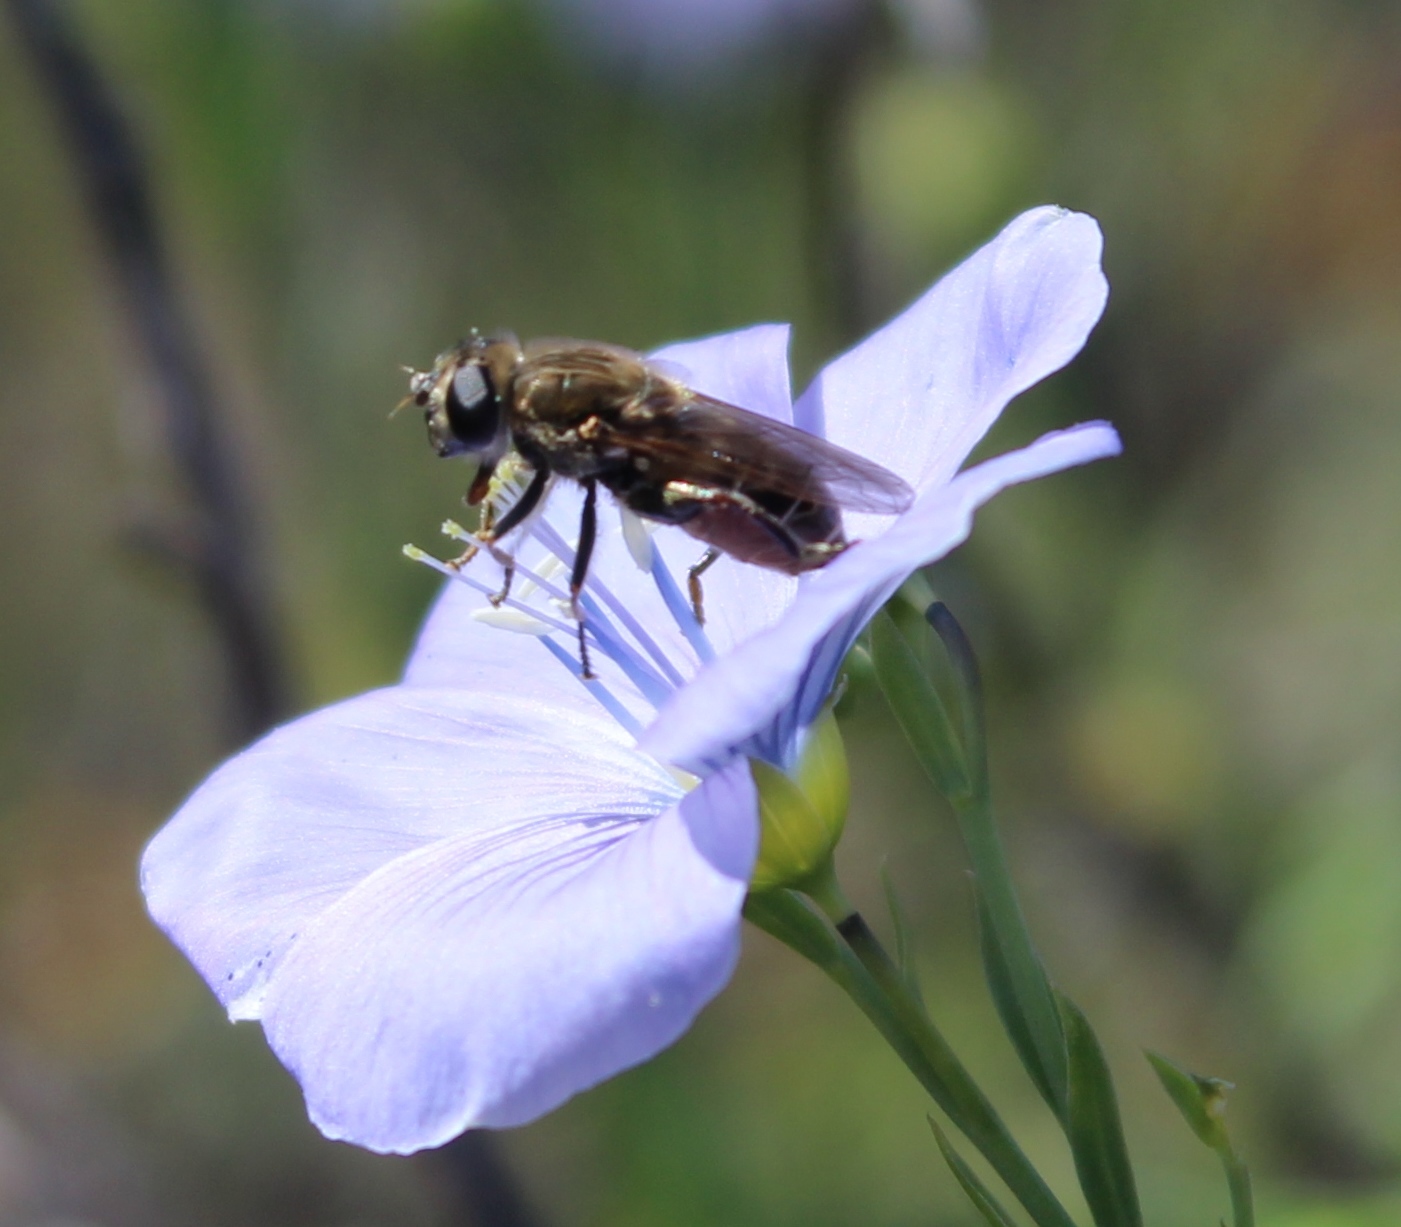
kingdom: Animalia
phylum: Arthropoda
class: Insecta
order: Diptera
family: Syrphidae
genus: Asemosyrphus
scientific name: Asemosyrphus polygrammus
